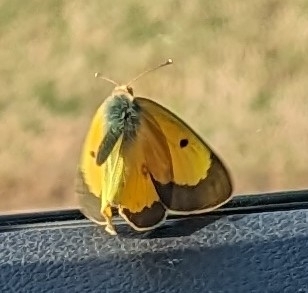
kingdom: Animalia
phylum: Arthropoda
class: Insecta
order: Lepidoptera
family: Pieridae
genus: Colias
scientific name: Colias eurytheme
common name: Alfalfa butterfly
